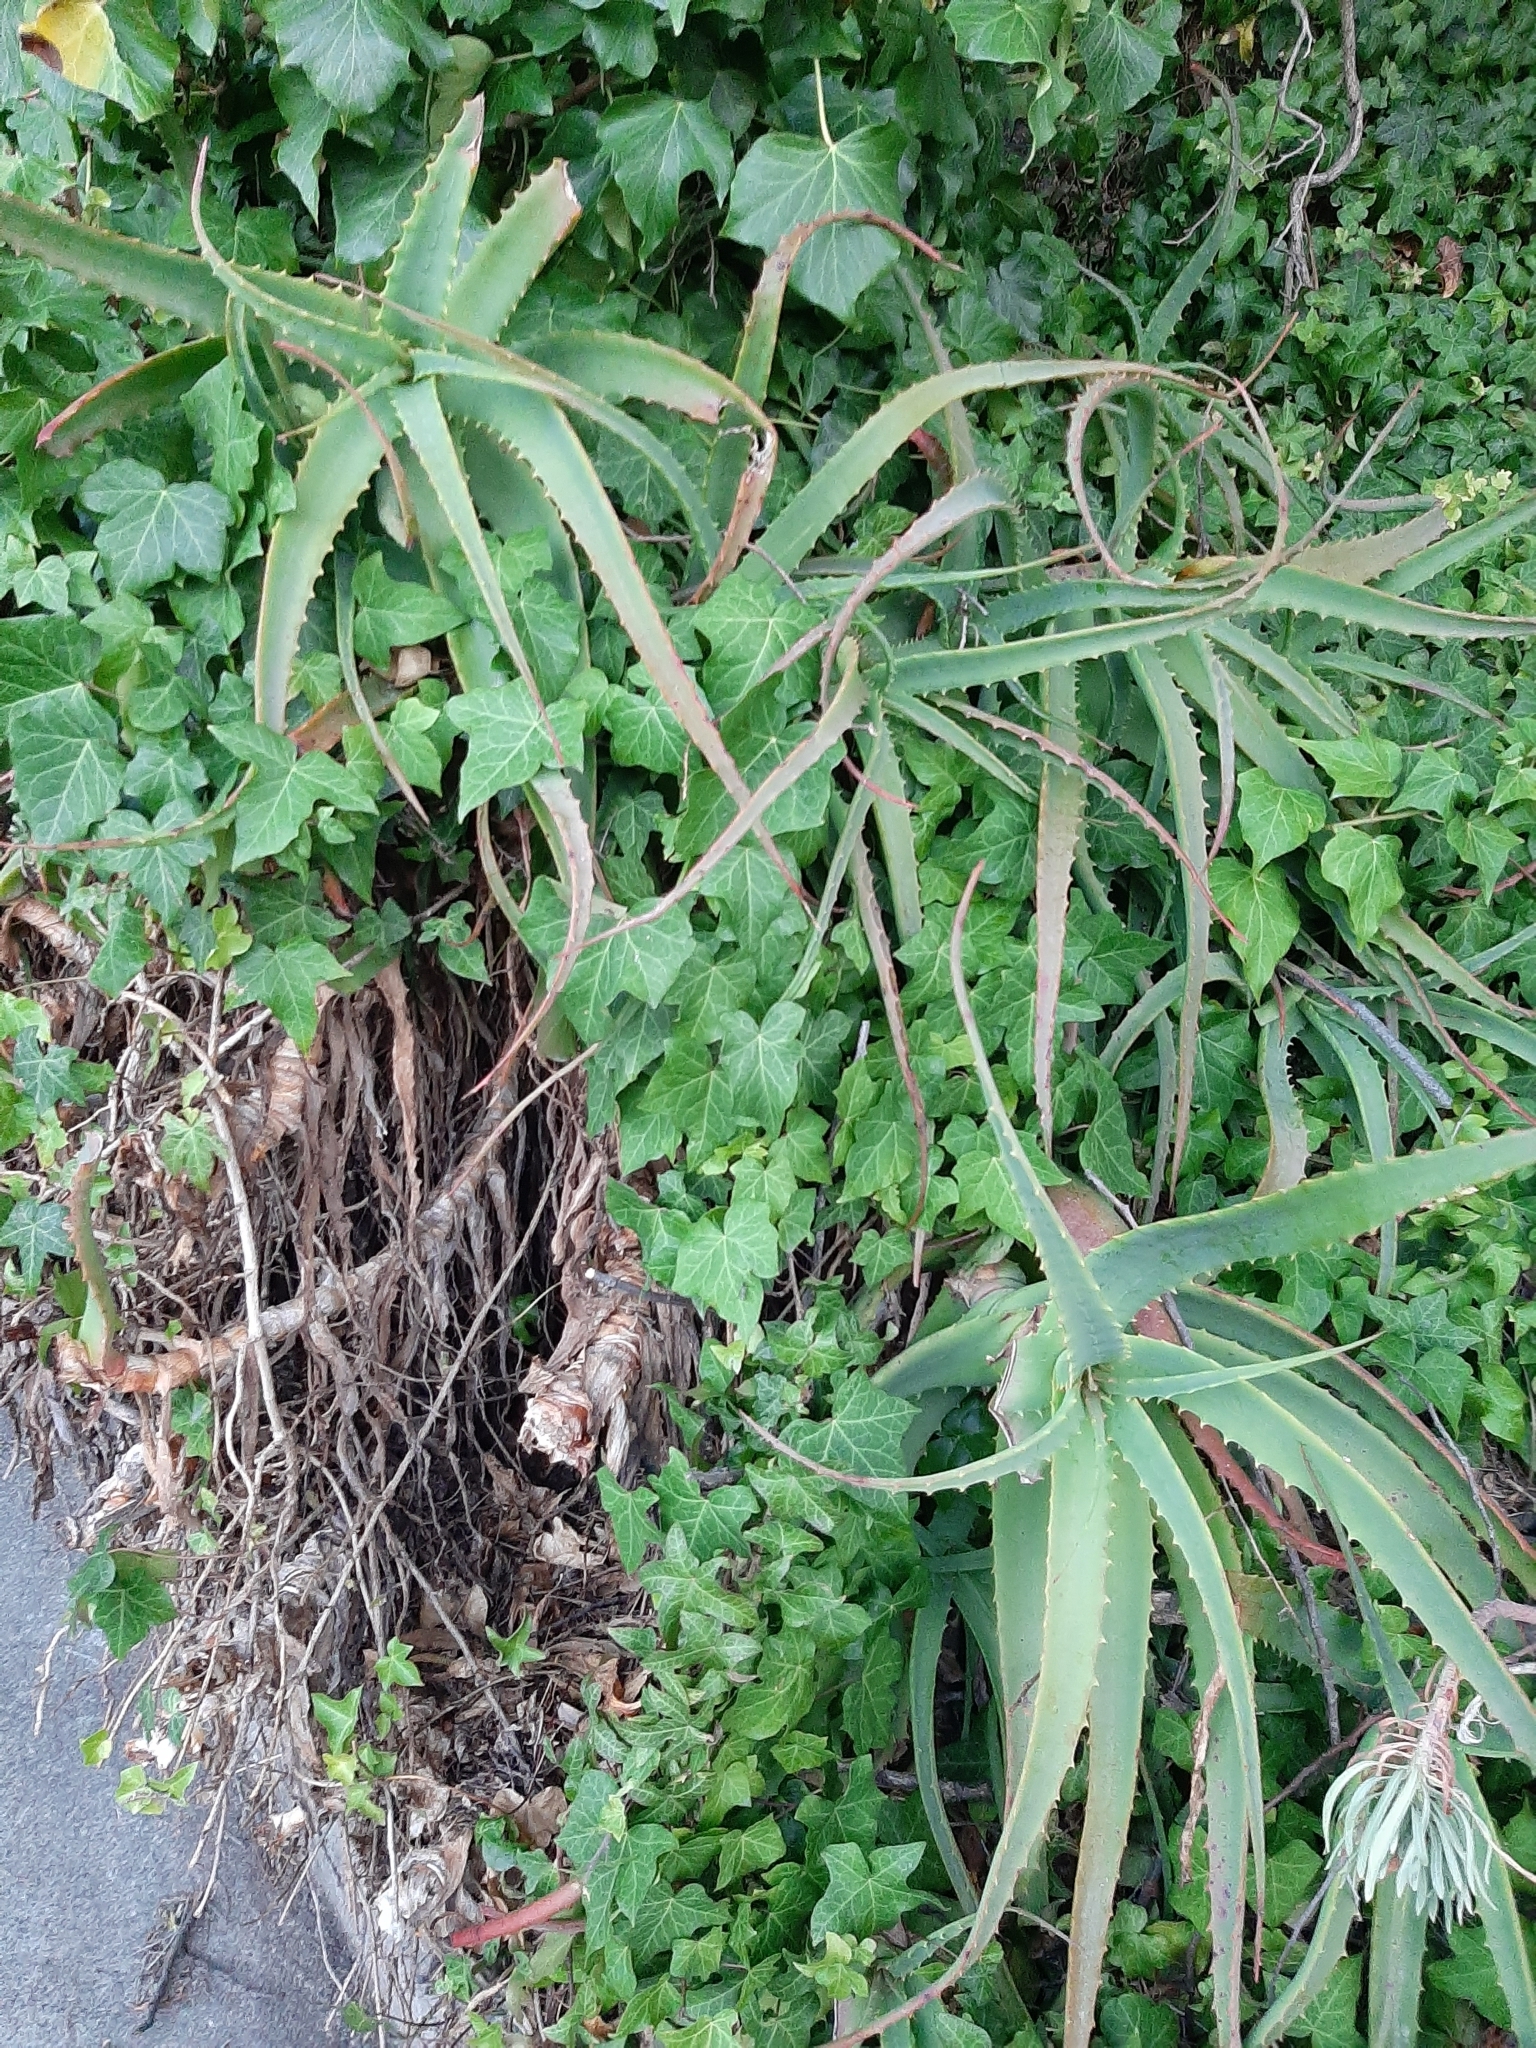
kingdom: Plantae
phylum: Tracheophyta
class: Liliopsida
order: Asparagales
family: Asphodelaceae
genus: Aloe
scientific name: Aloe arborescens
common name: Candelabra aloe
